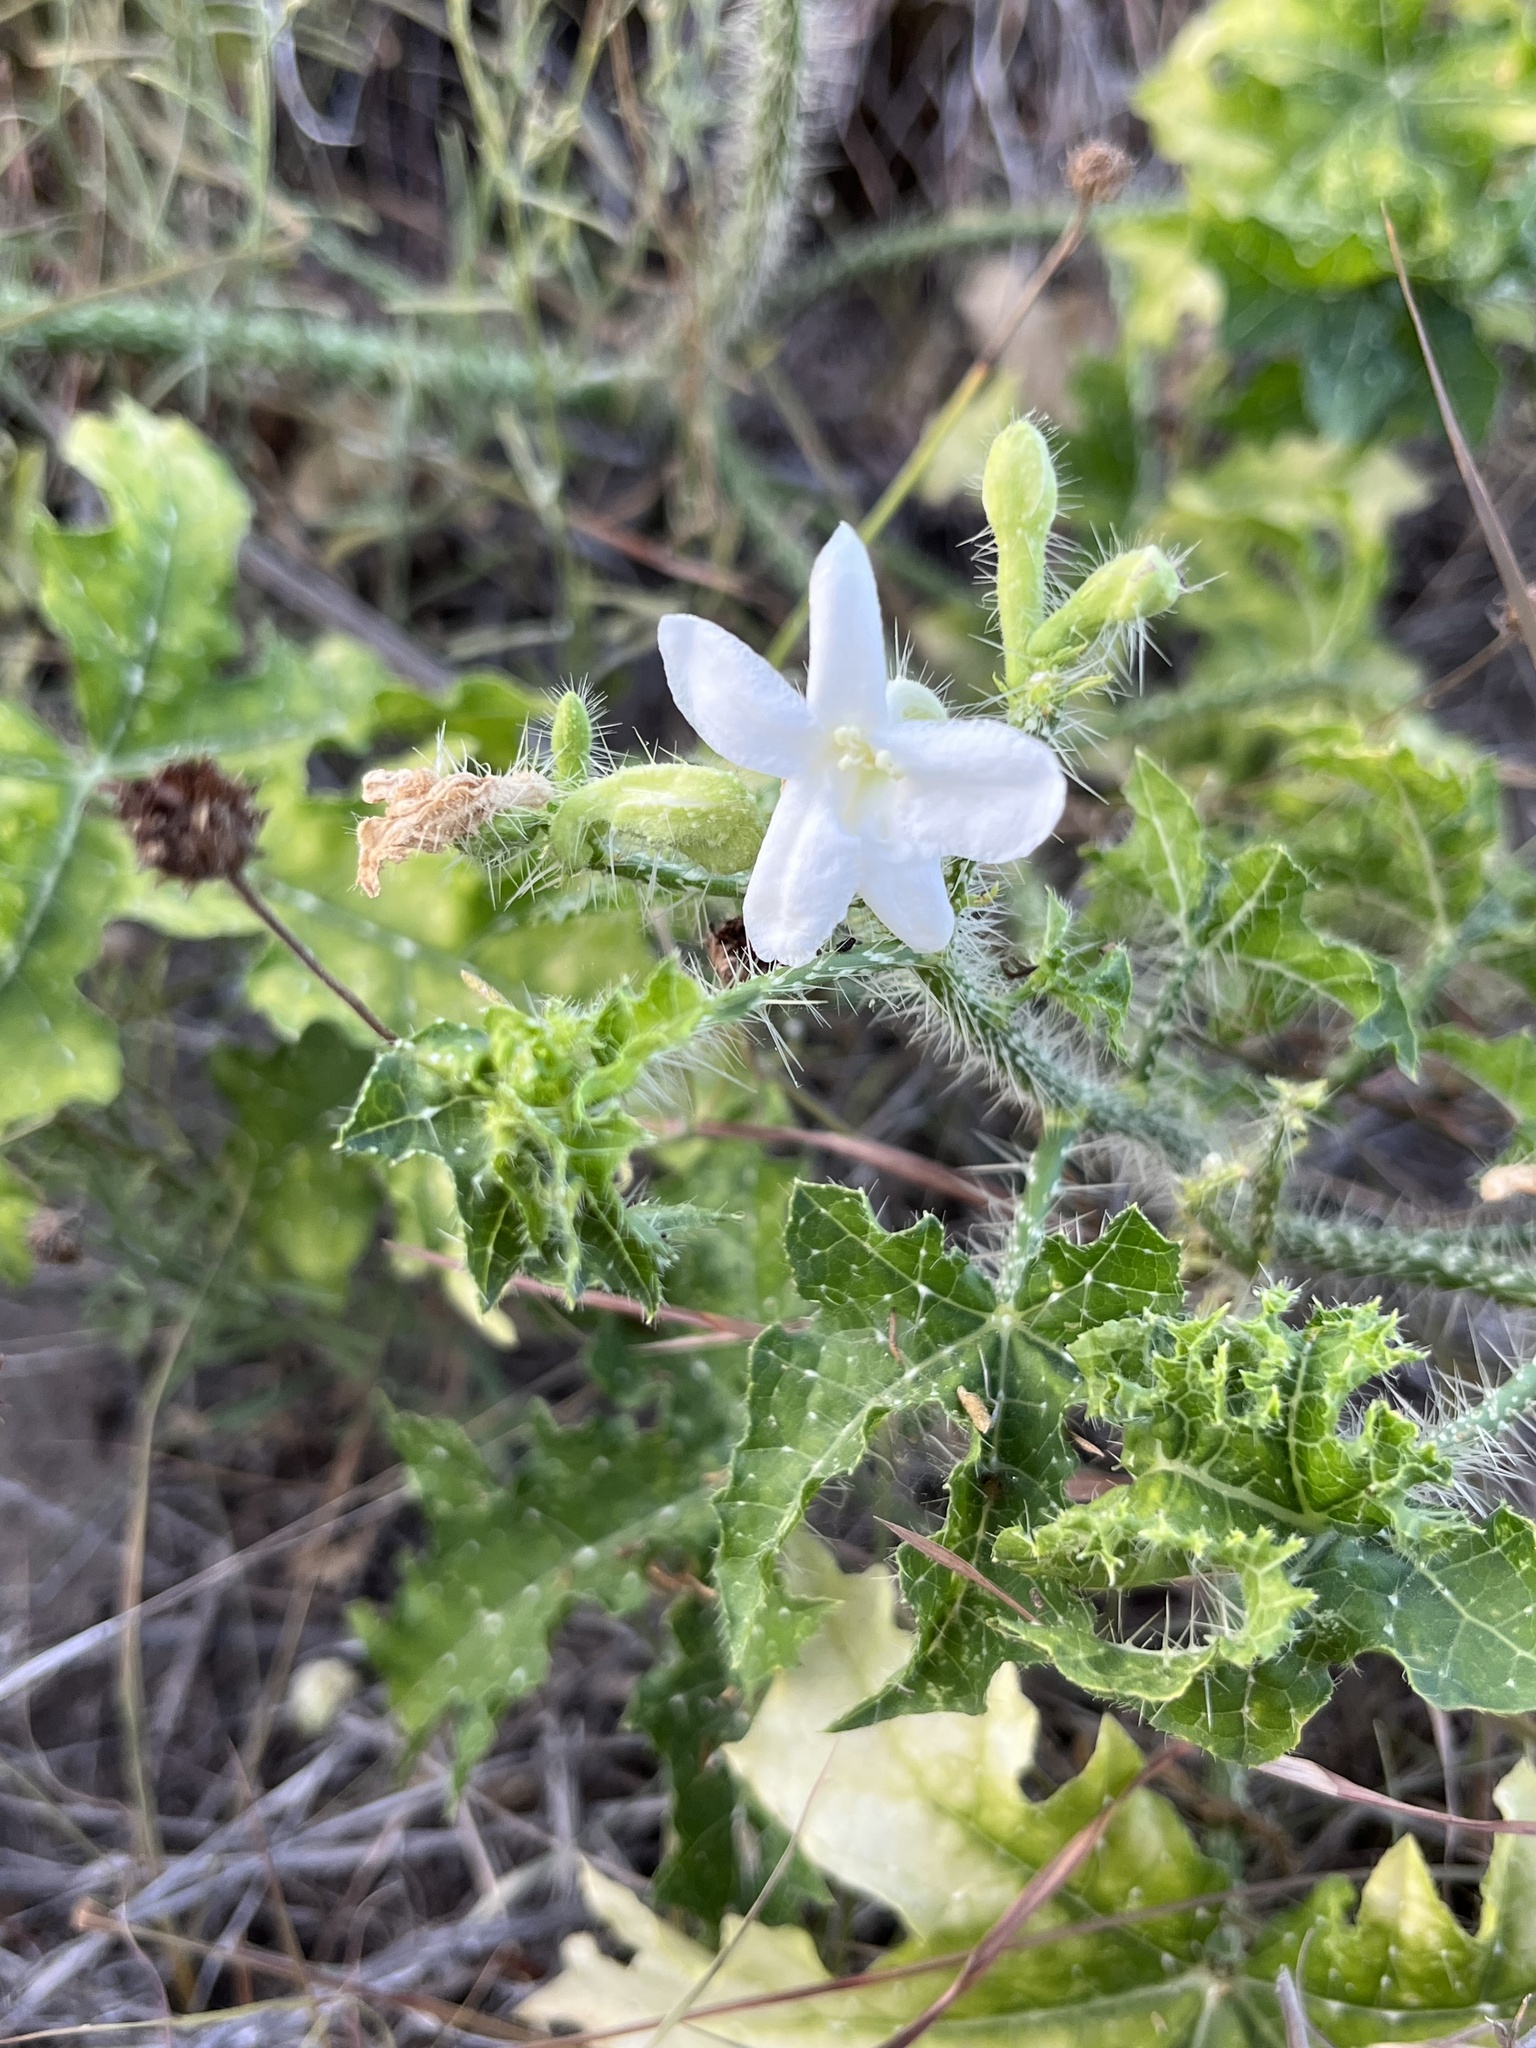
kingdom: Plantae
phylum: Tracheophyta
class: Magnoliopsida
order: Malpighiales
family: Euphorbiaceae
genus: Cnidoscolus
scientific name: Cnidoscolus texanus
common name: Texas bull-nettle
